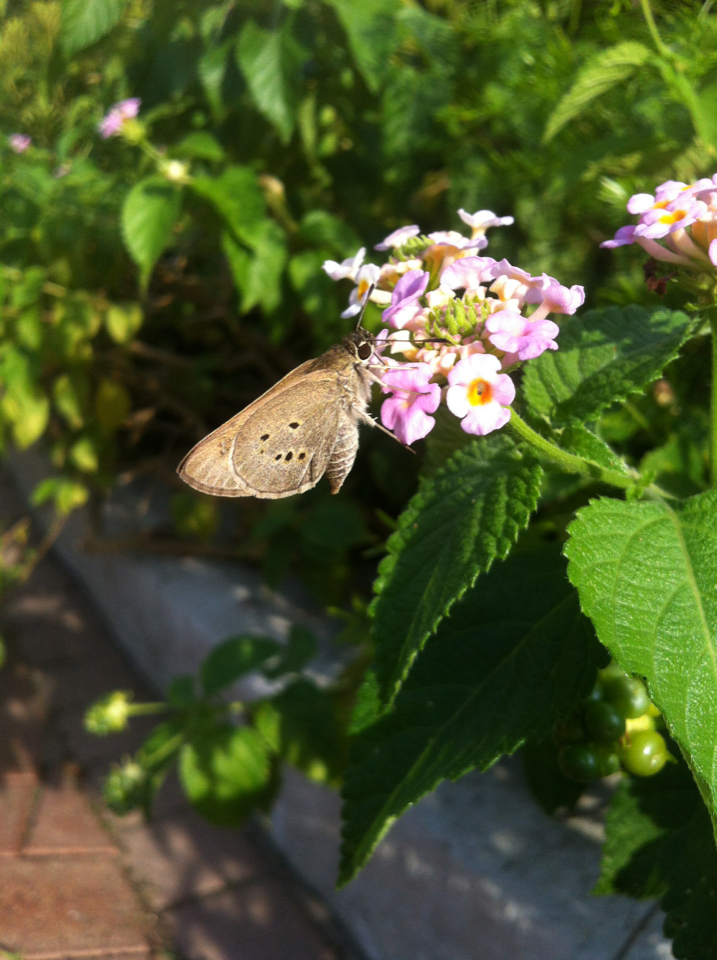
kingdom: Animalia
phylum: Arthropoda
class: Insecta
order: Lepidoptera
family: Hesperiidae
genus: Suastus
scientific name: Suastus gremius
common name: Indian palm bob
